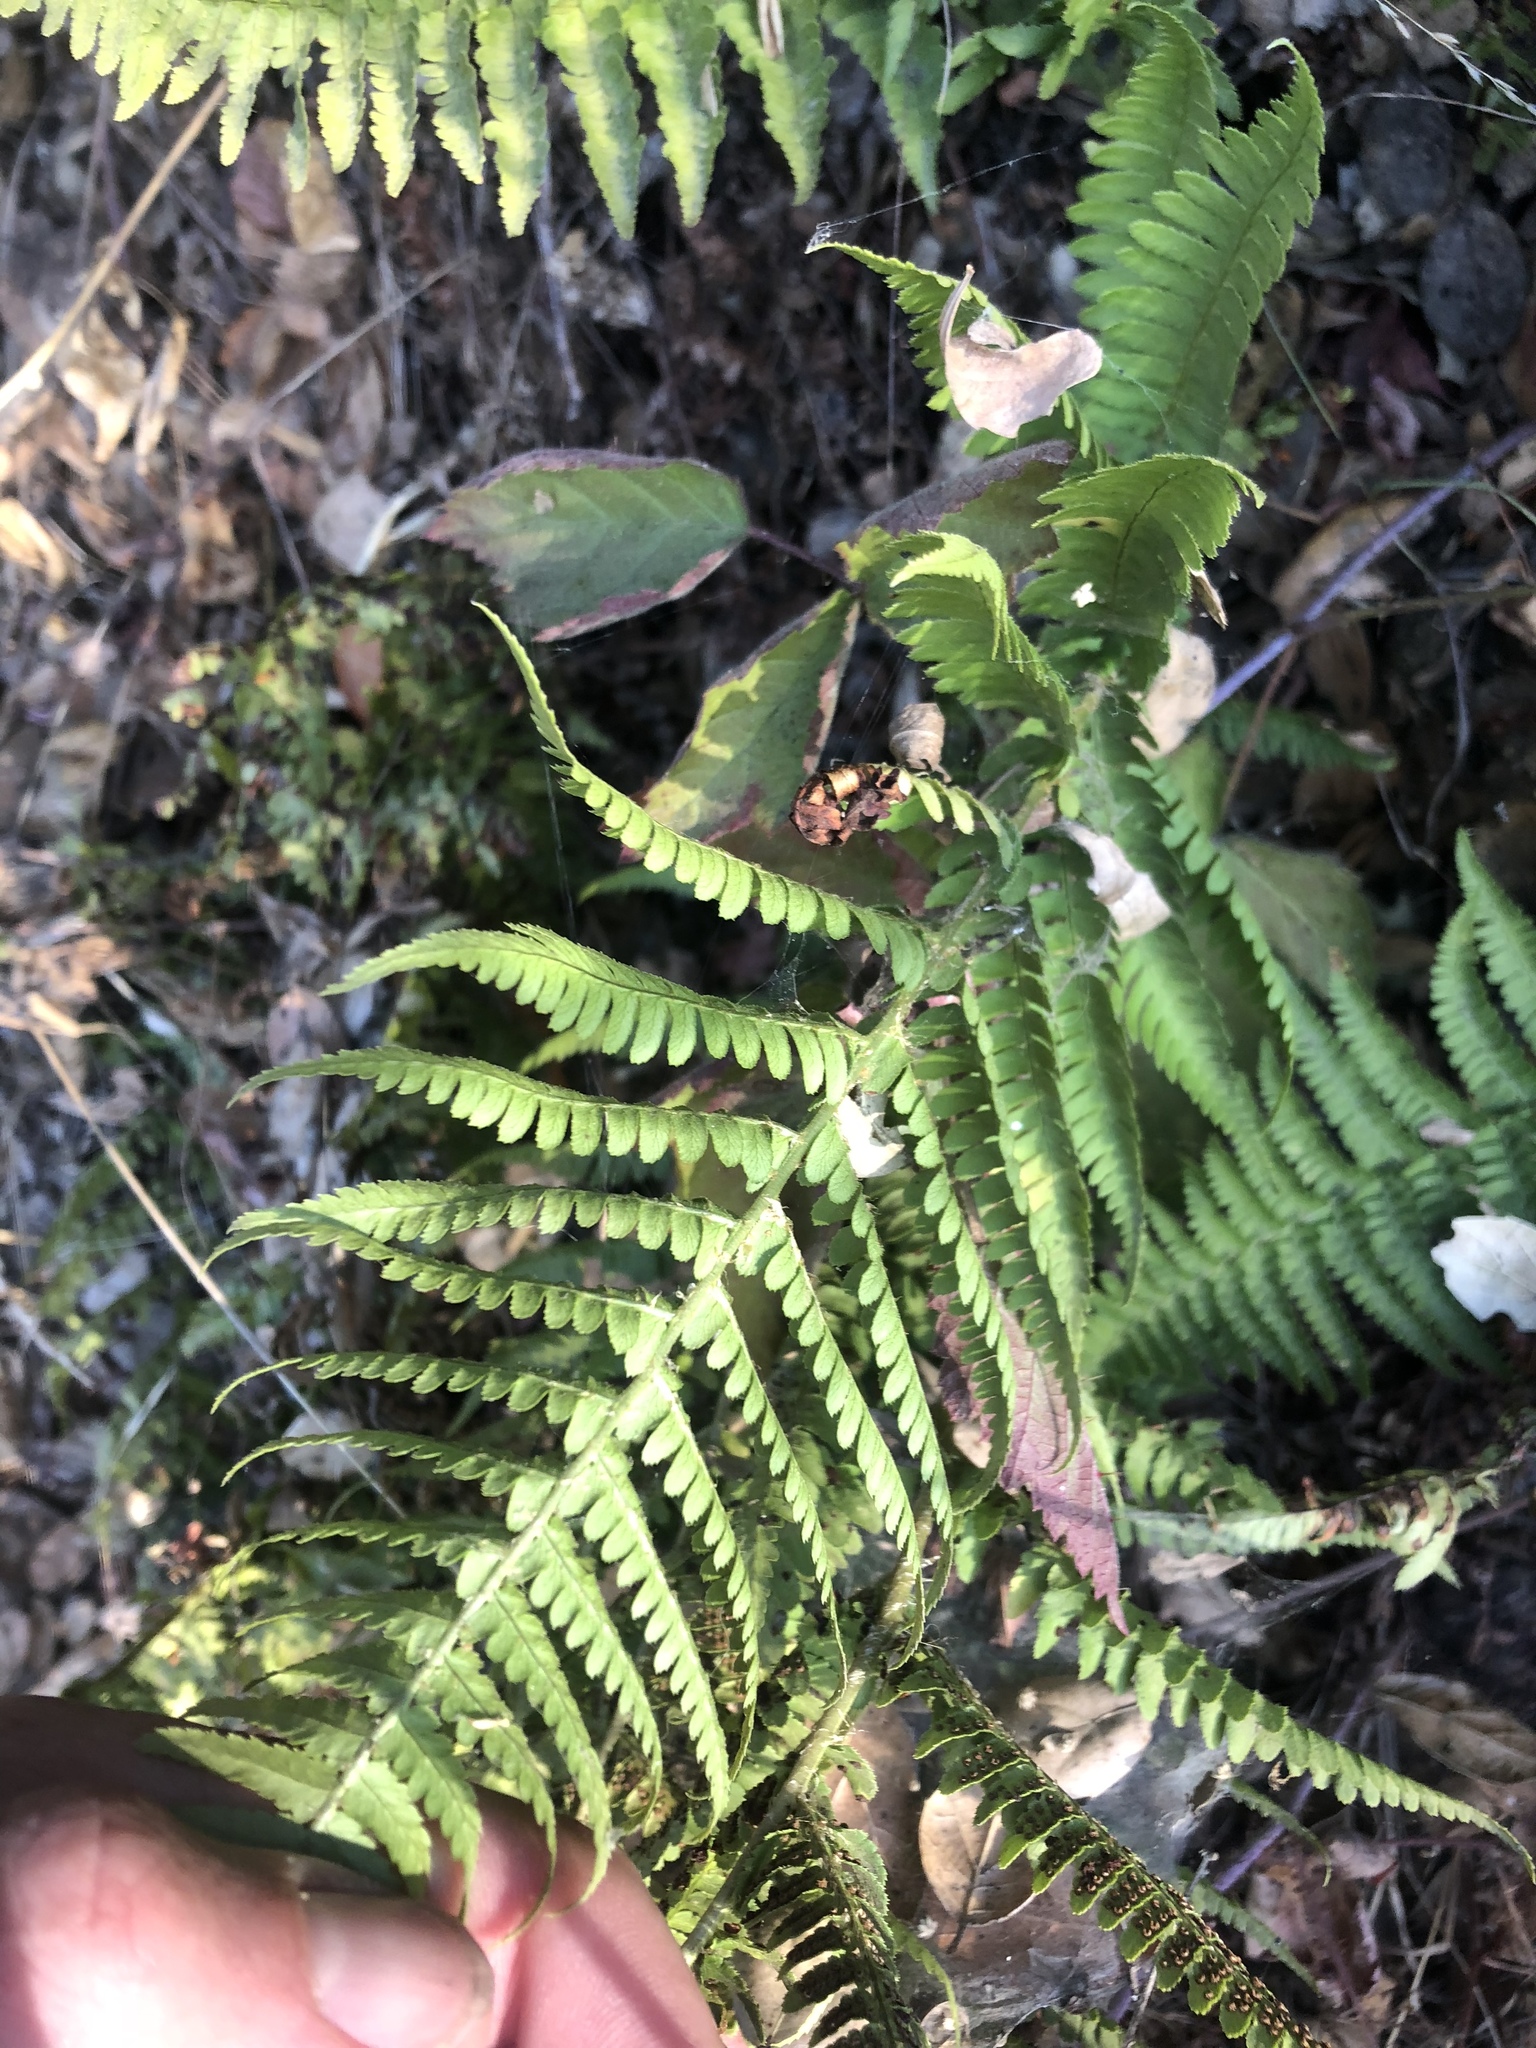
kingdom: Plantae
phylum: Tracheophyta
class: Polypodiopsida
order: Polypodiales
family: Dryopteridaceae
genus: Dryopteris
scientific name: Dryopteris arguta
